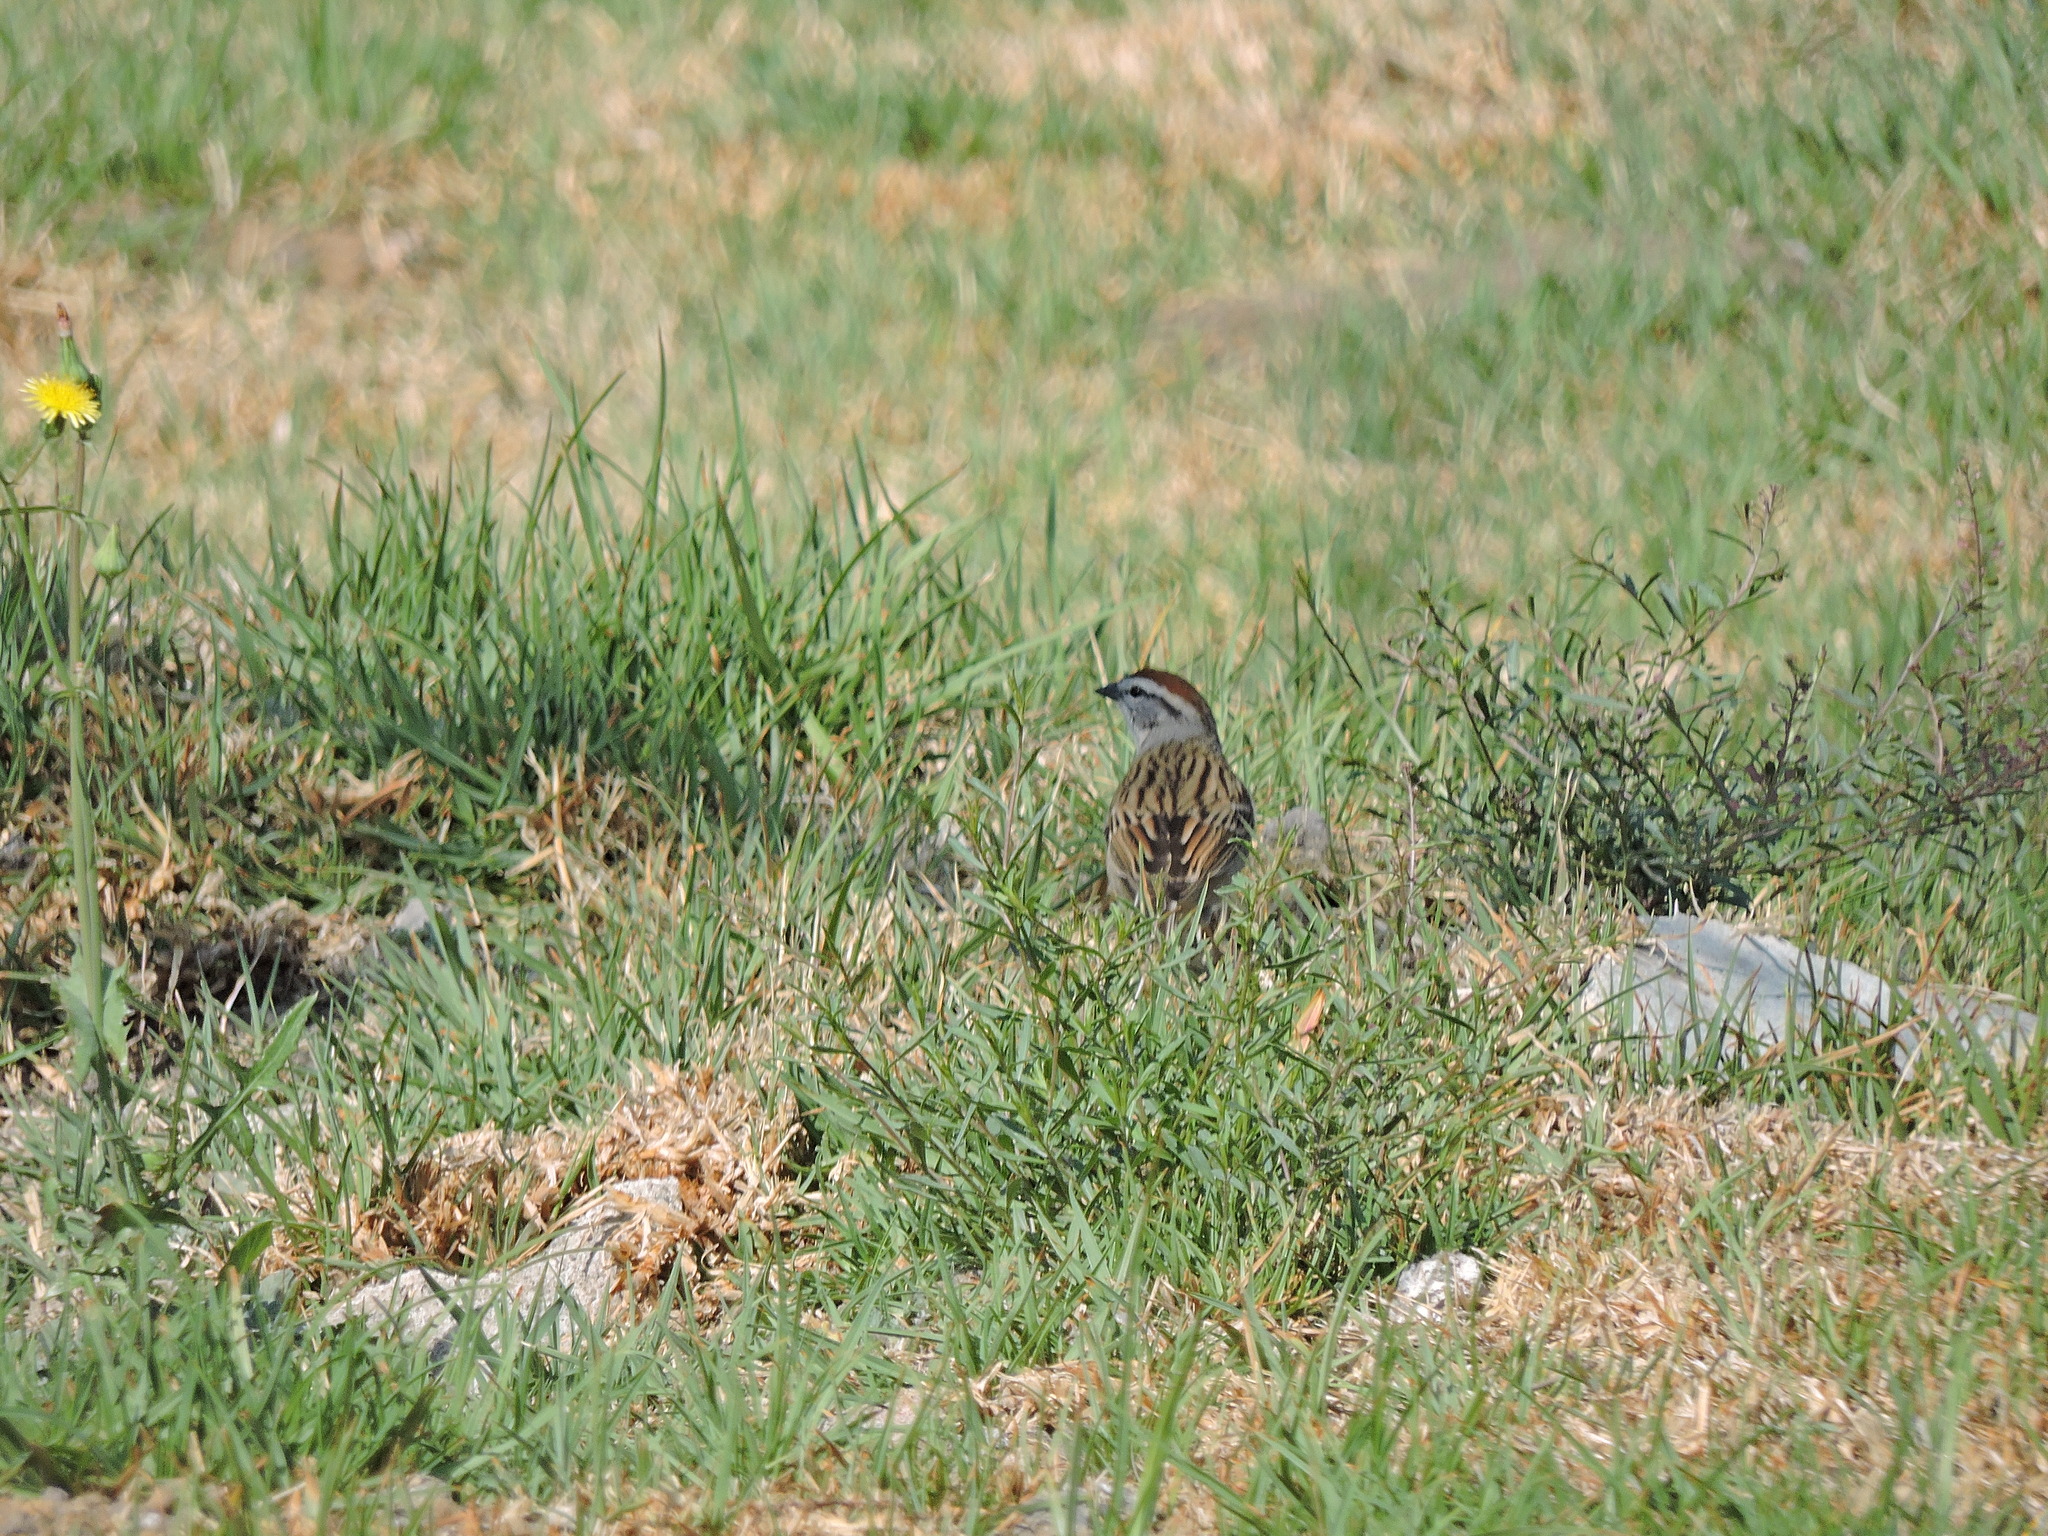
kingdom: Animalia
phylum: Chordata
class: Aves
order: Passeriformes
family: Passerellidae
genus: Spizella
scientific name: Spizella passerina
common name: Chipping sparrow
